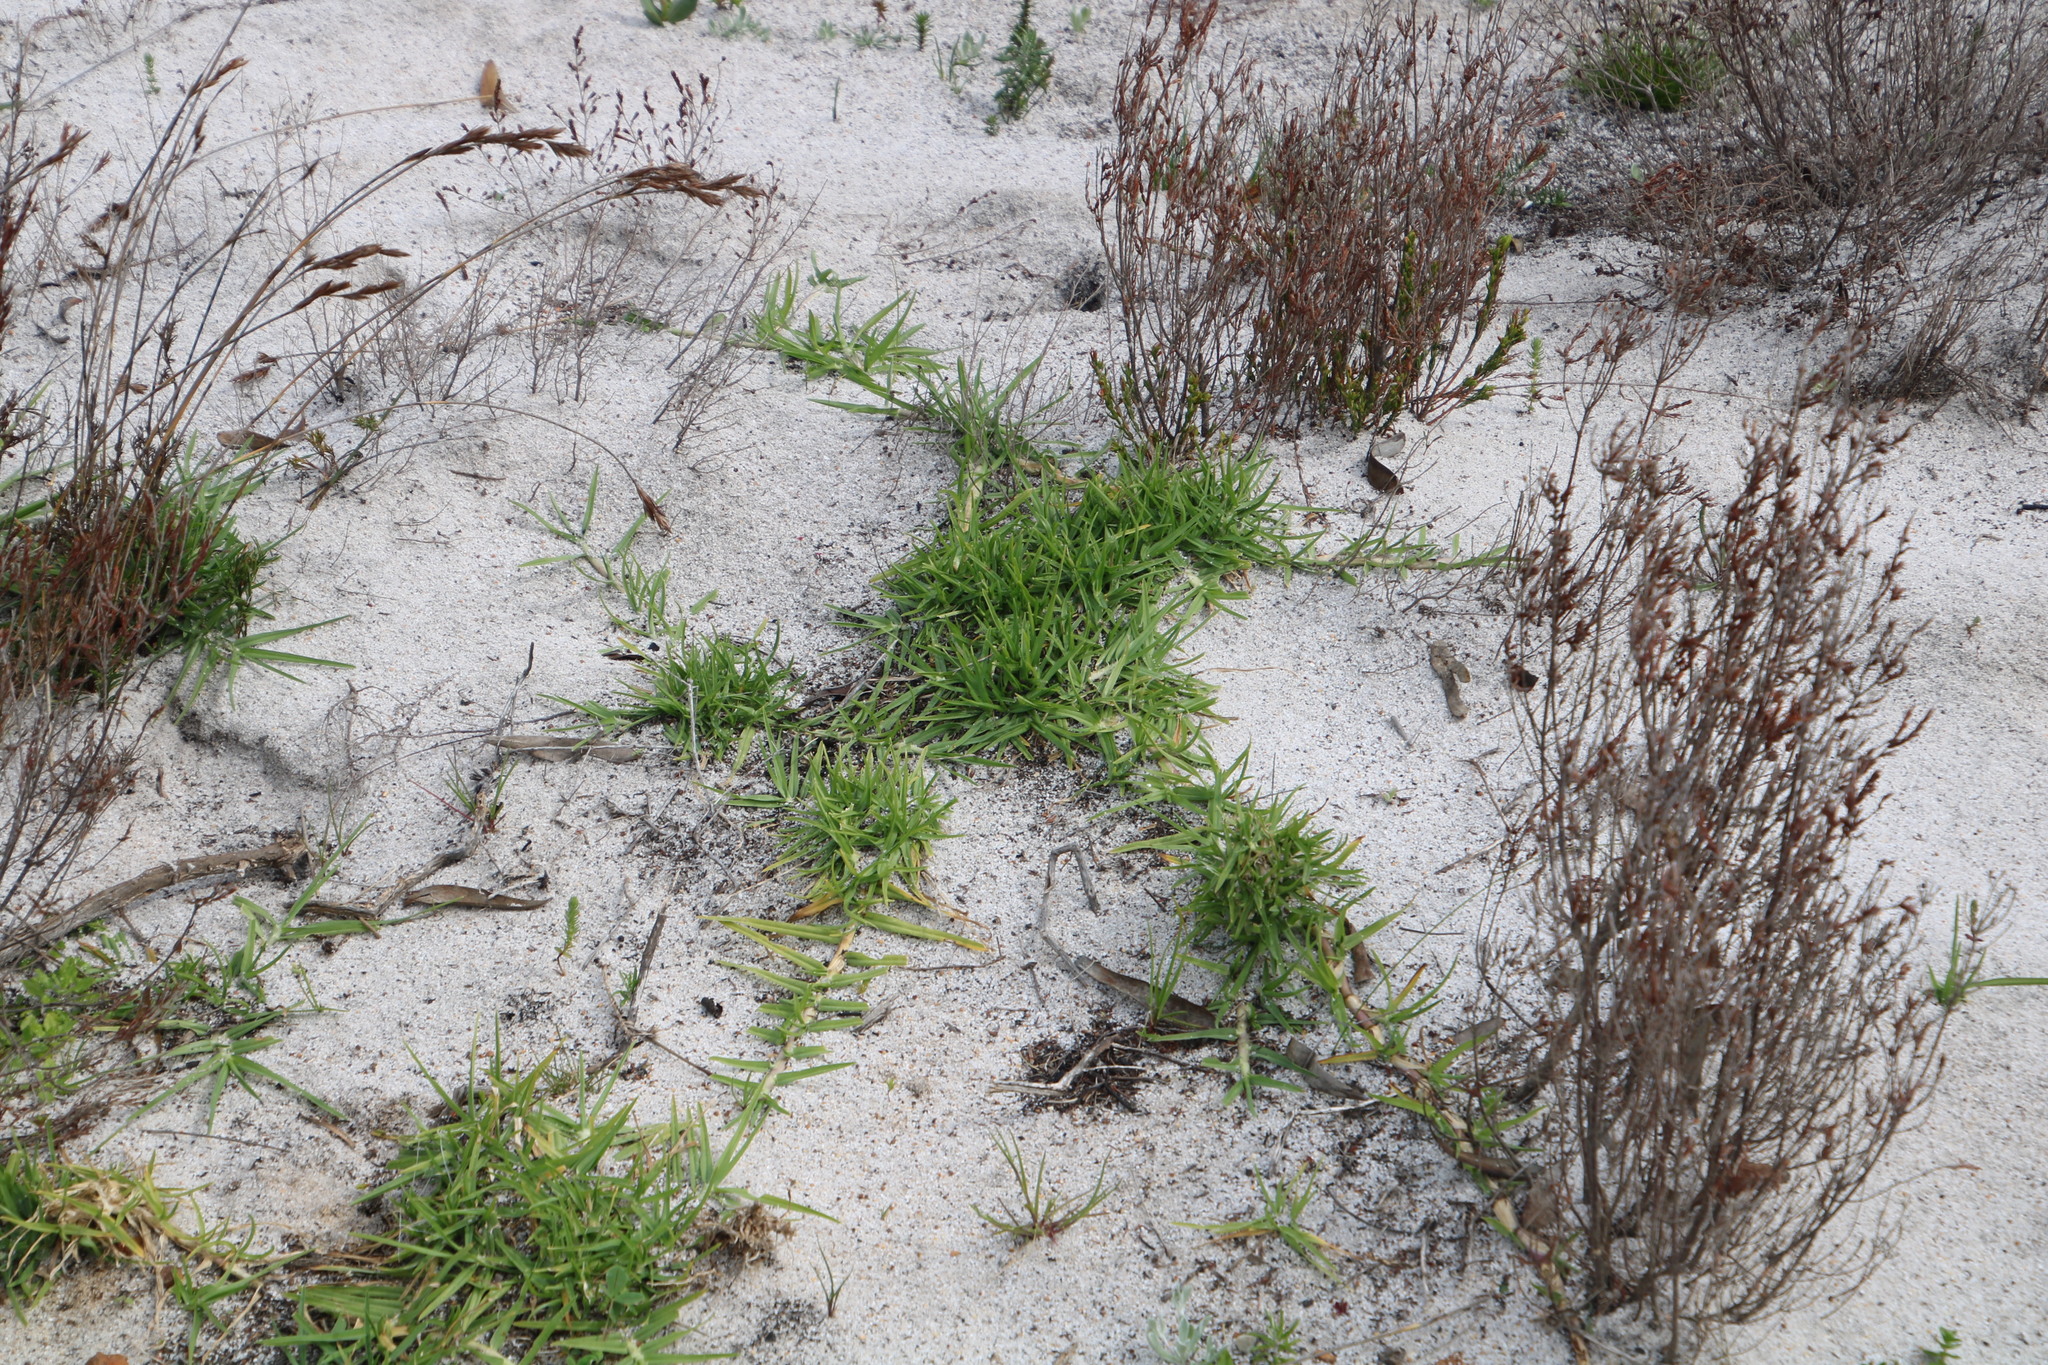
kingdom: Plantae
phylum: Tracheophyta
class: Liliopsida
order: Poales
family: Poaceae
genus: Cenchrus
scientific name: Cenchrus clandestinus
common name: Kikuyugrass
